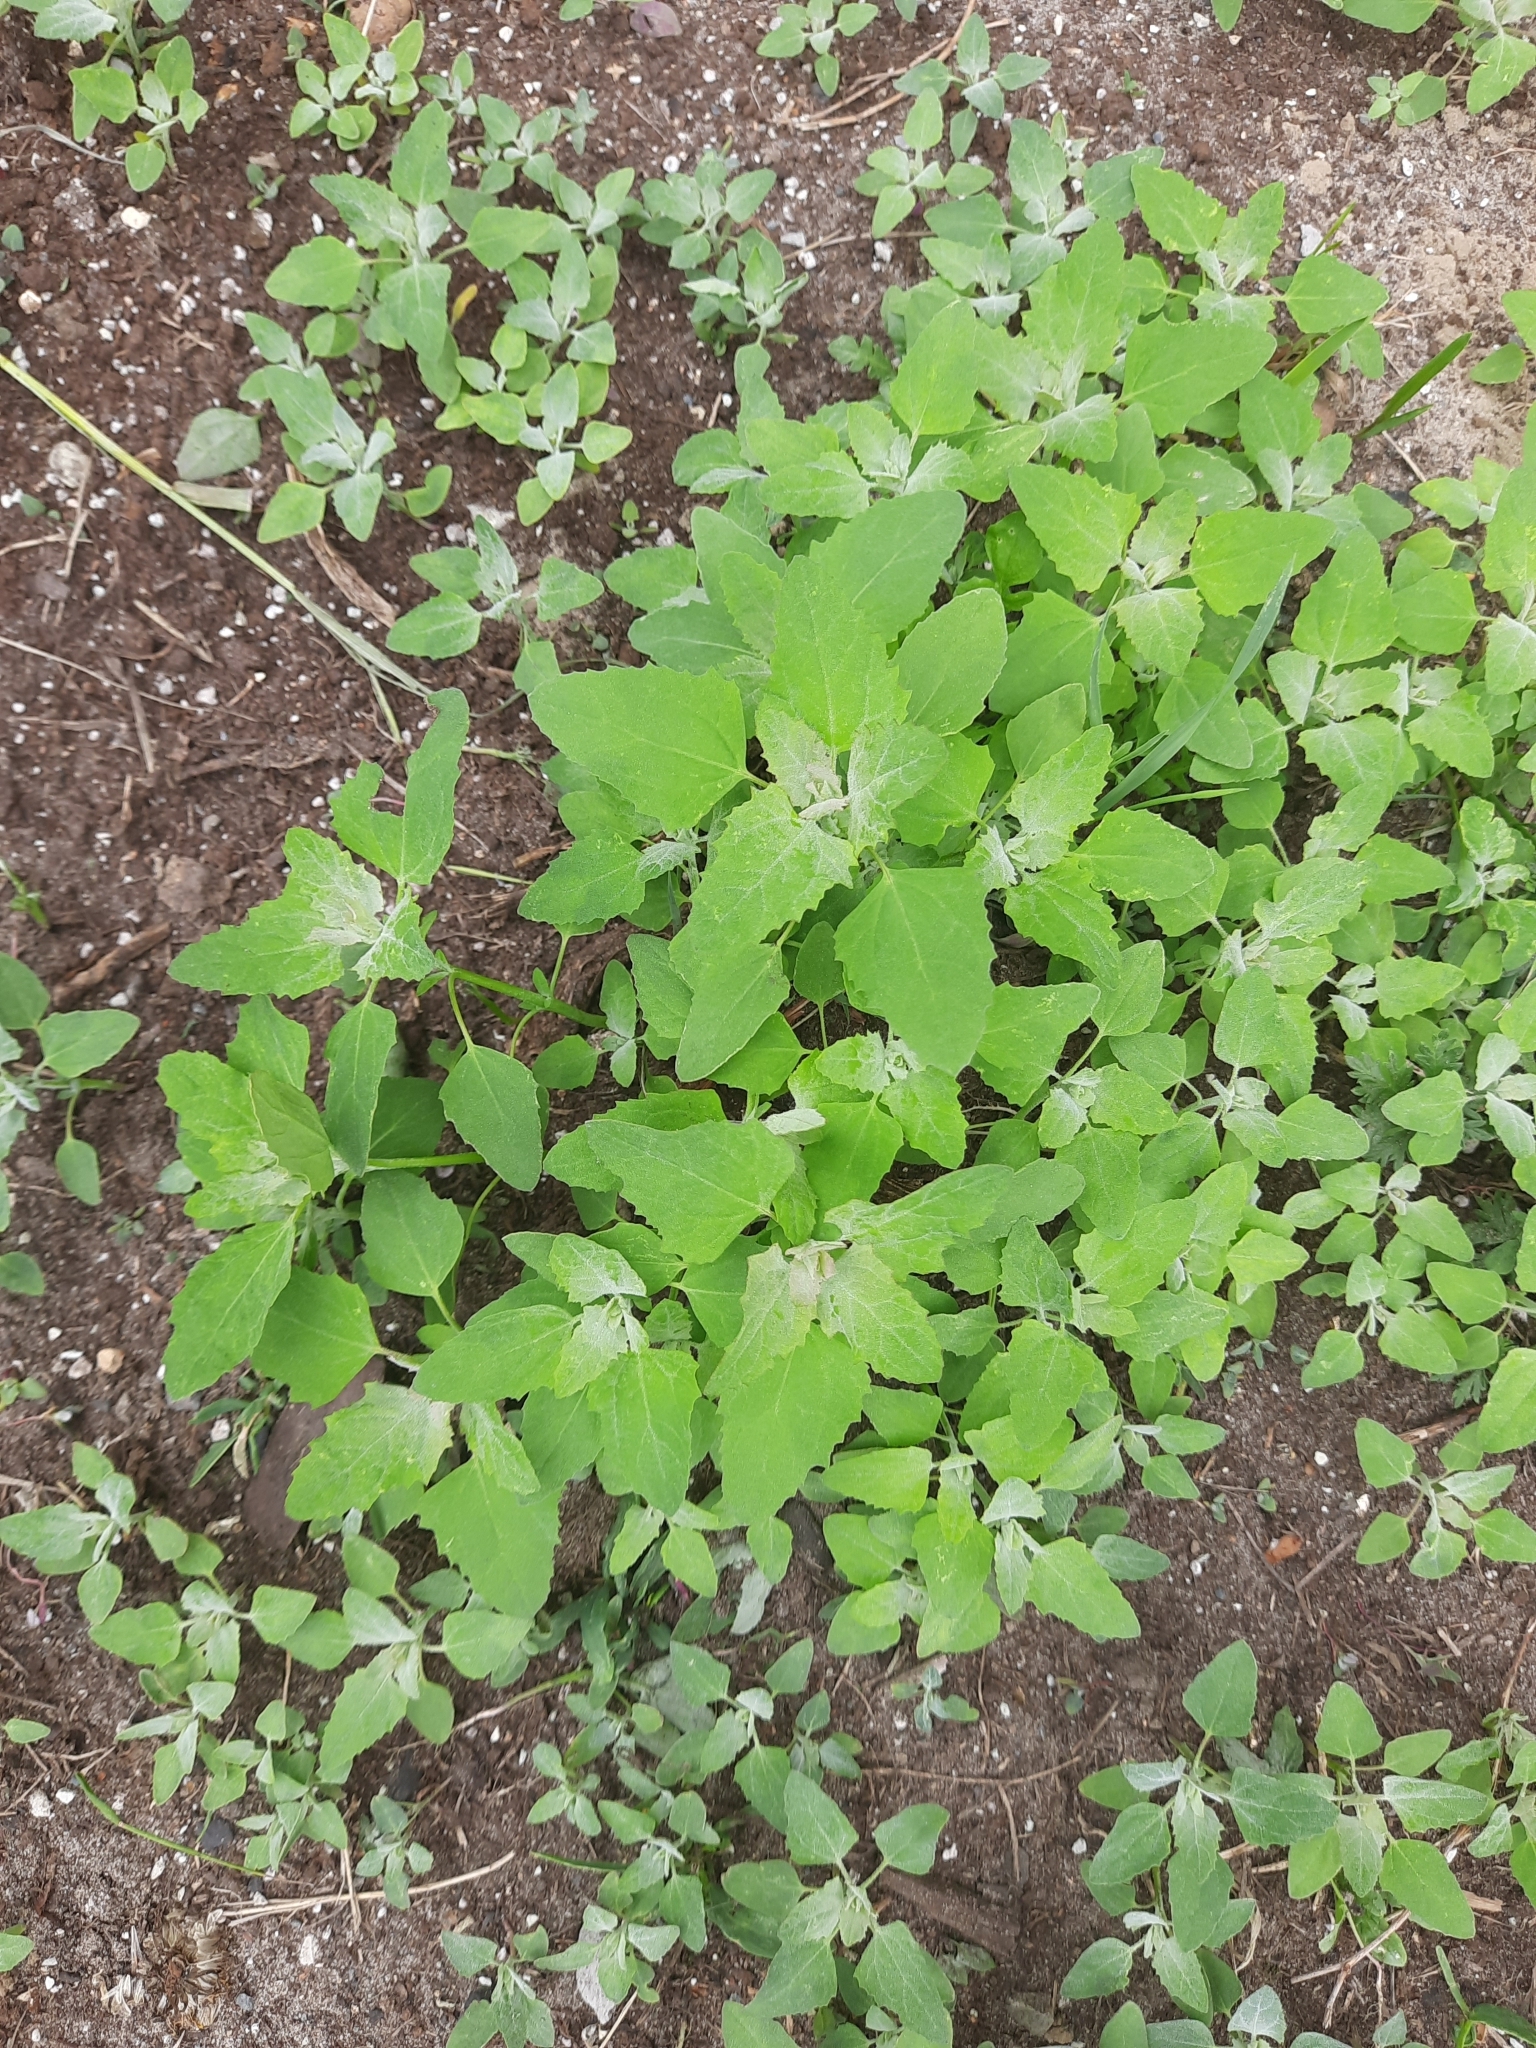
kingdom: Plantae
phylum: Tracheophyta
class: Magnoliopsida
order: Caryophyllales
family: Amaranthaceae
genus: Chenopodium
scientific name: Chenopodium album
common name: Fat-hen
